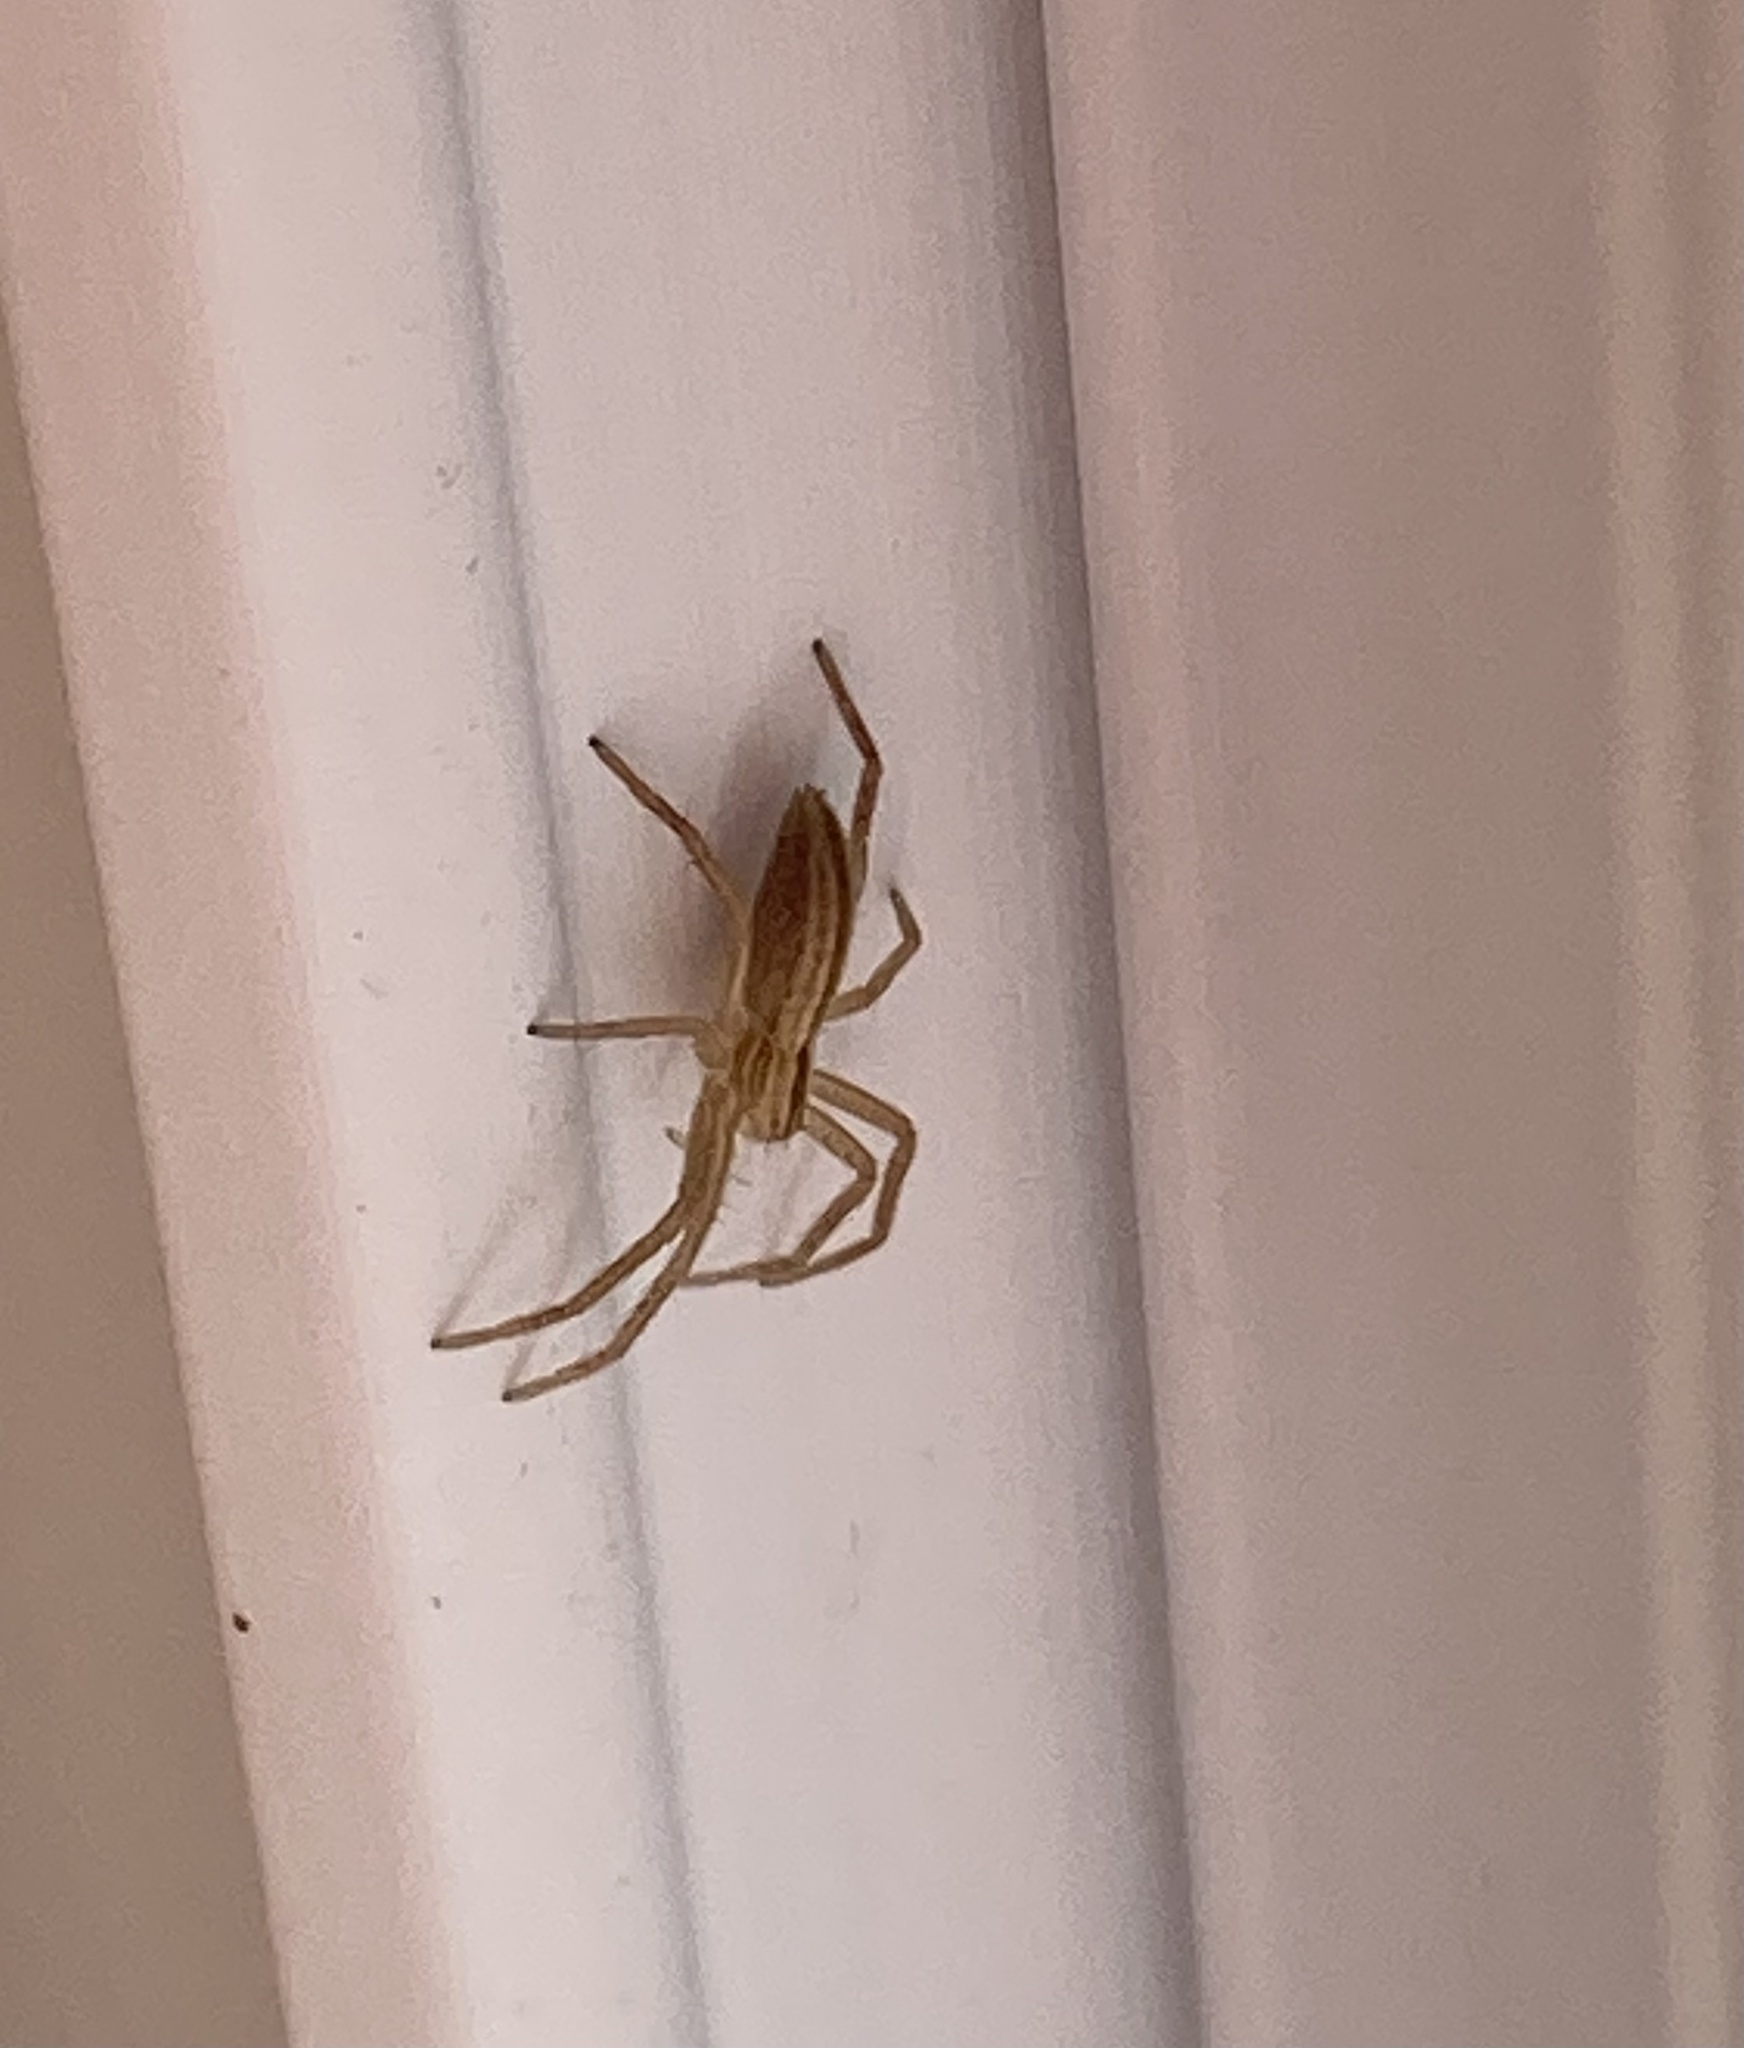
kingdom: Animalia
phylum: Arthropoda
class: Arachnida
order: Araneae
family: Philodromidae
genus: Tibellus
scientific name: Tibellus oblongus
